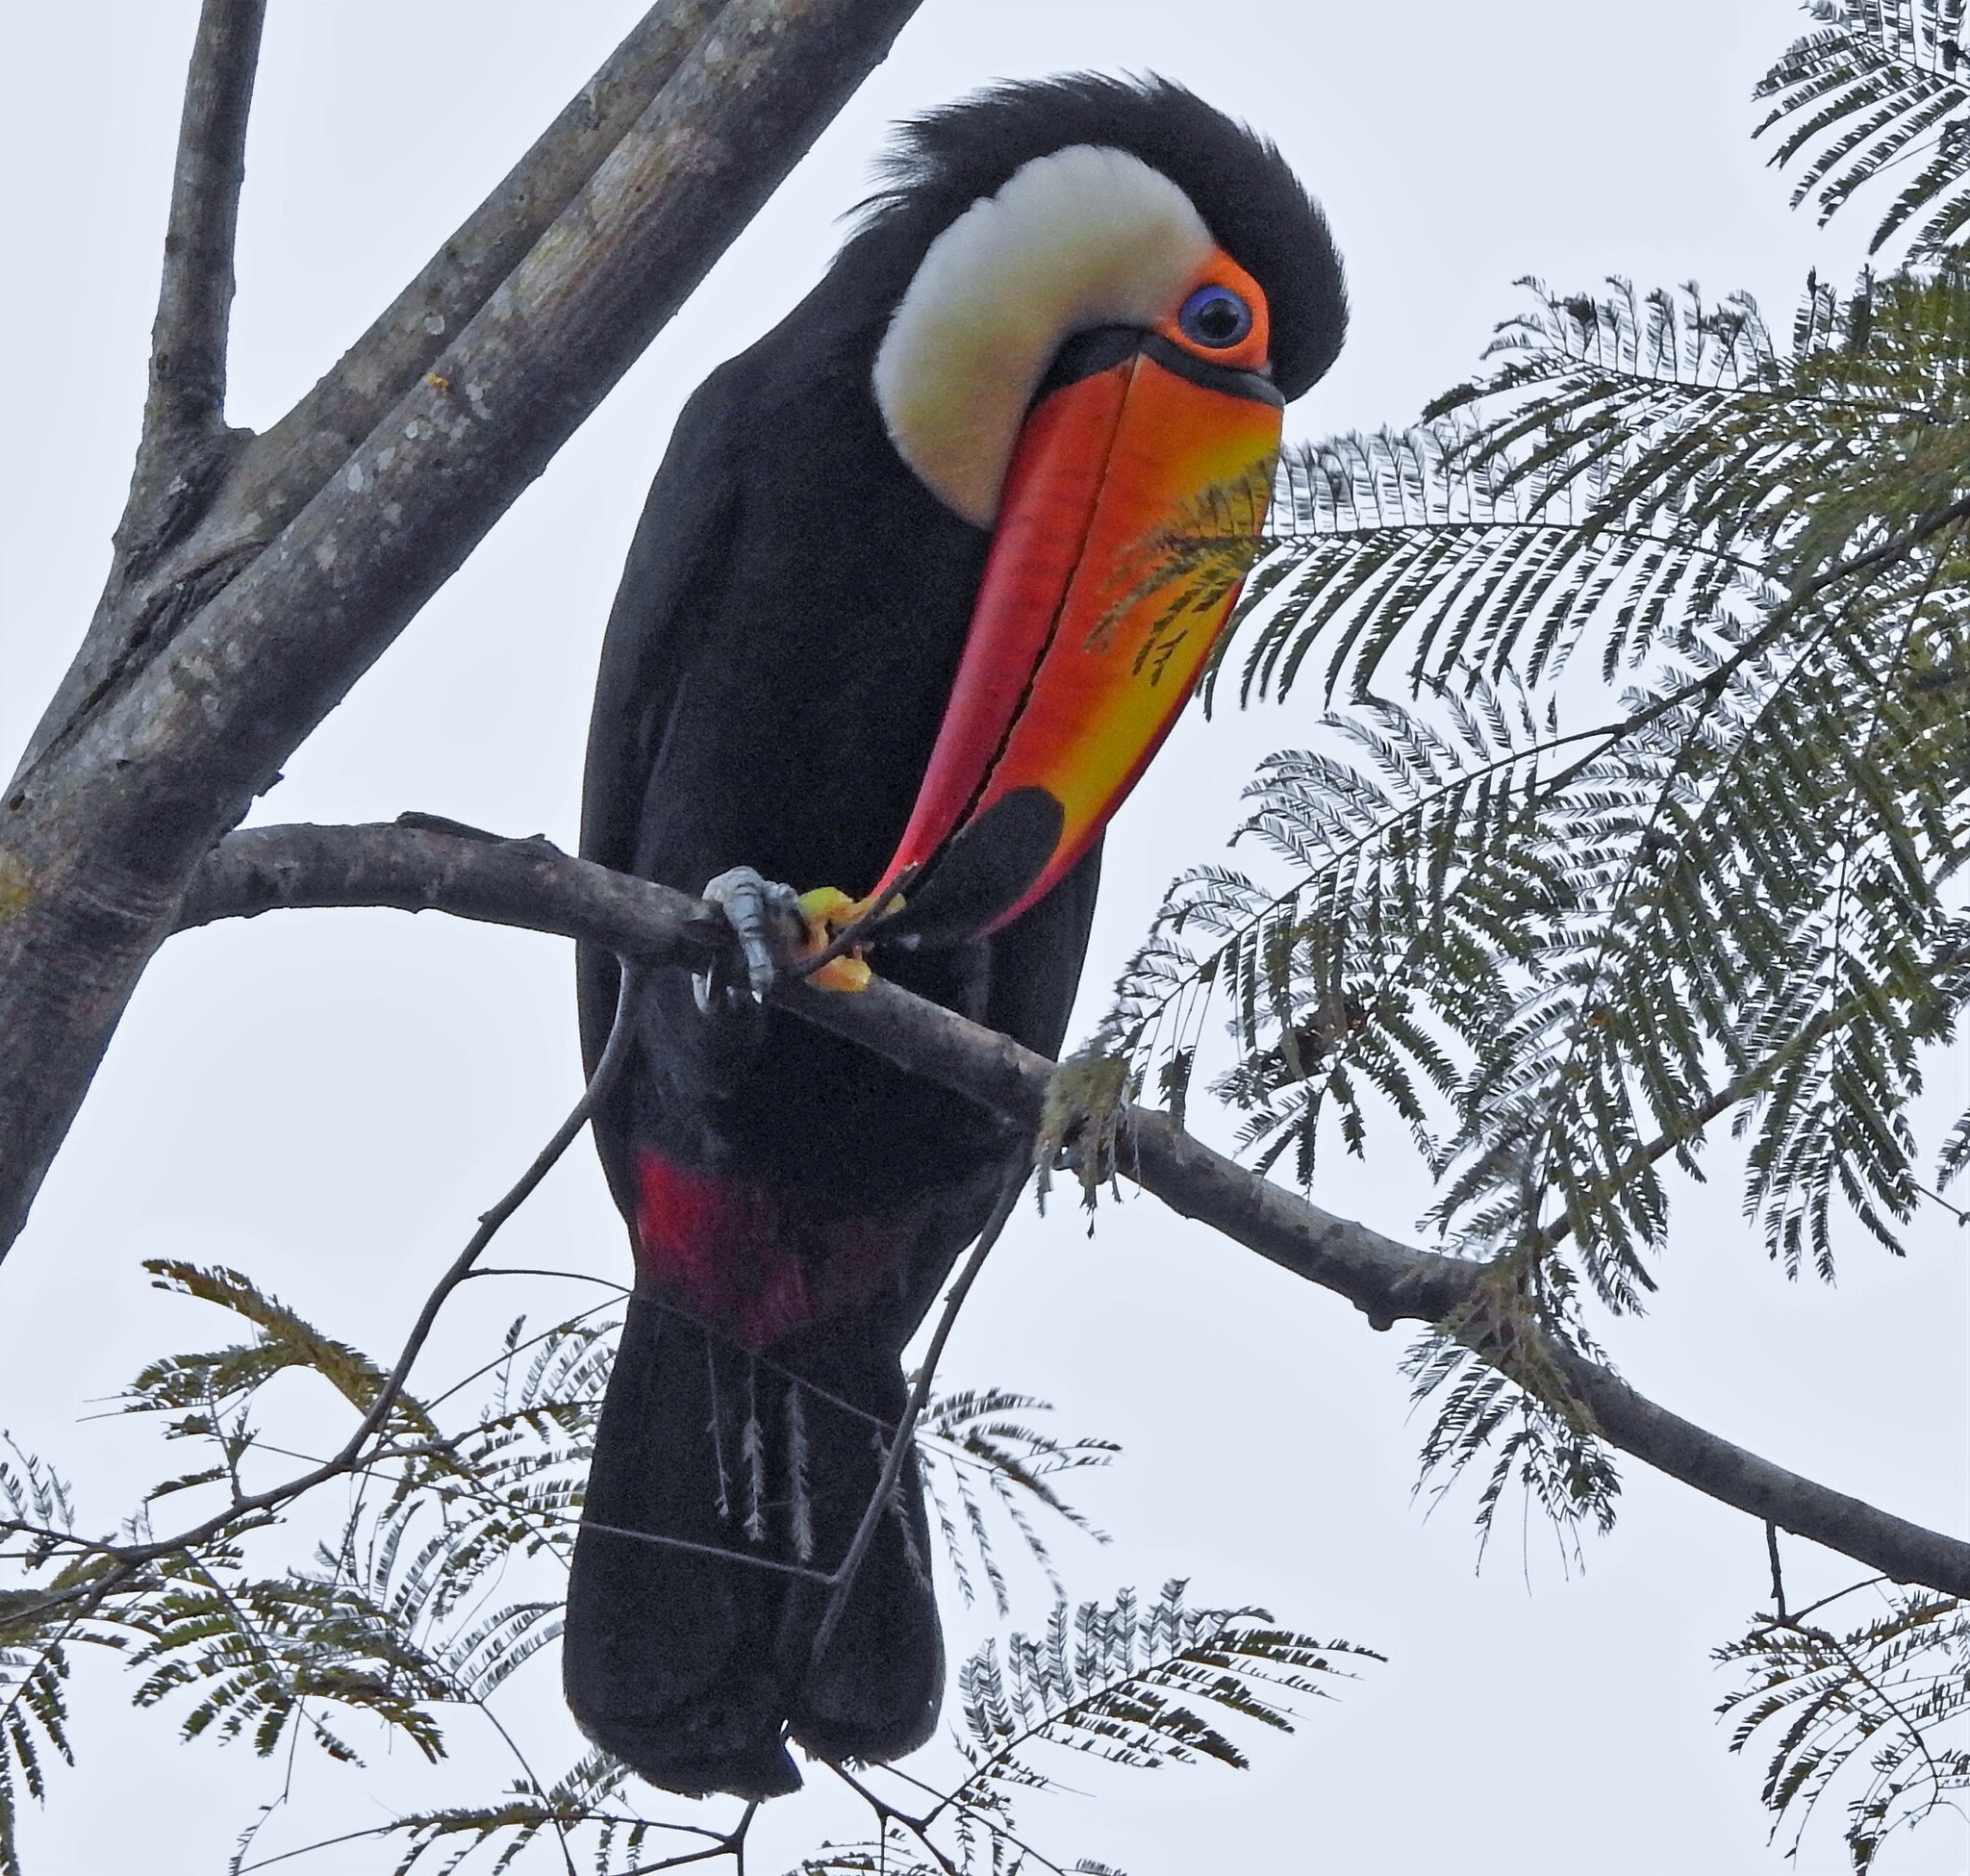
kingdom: Animalia
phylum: Chordata
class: Aves
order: Piciformes
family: Ramphastidae
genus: Ramphastos
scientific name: Ramphastos toco
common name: Toco toucan
